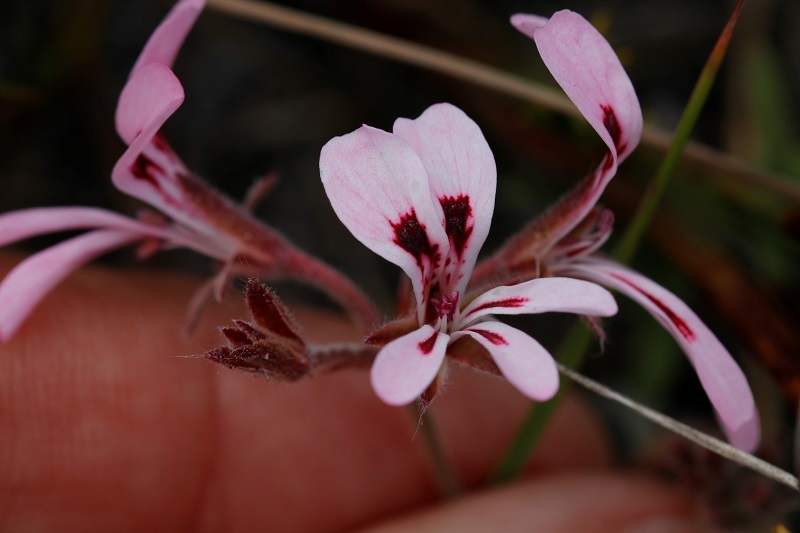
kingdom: Plantae
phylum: Tracheophyta
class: Magnoliopsida
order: Geraniales
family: Geraniaceae
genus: Pelargonium
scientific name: Pelargonium psammophilum
